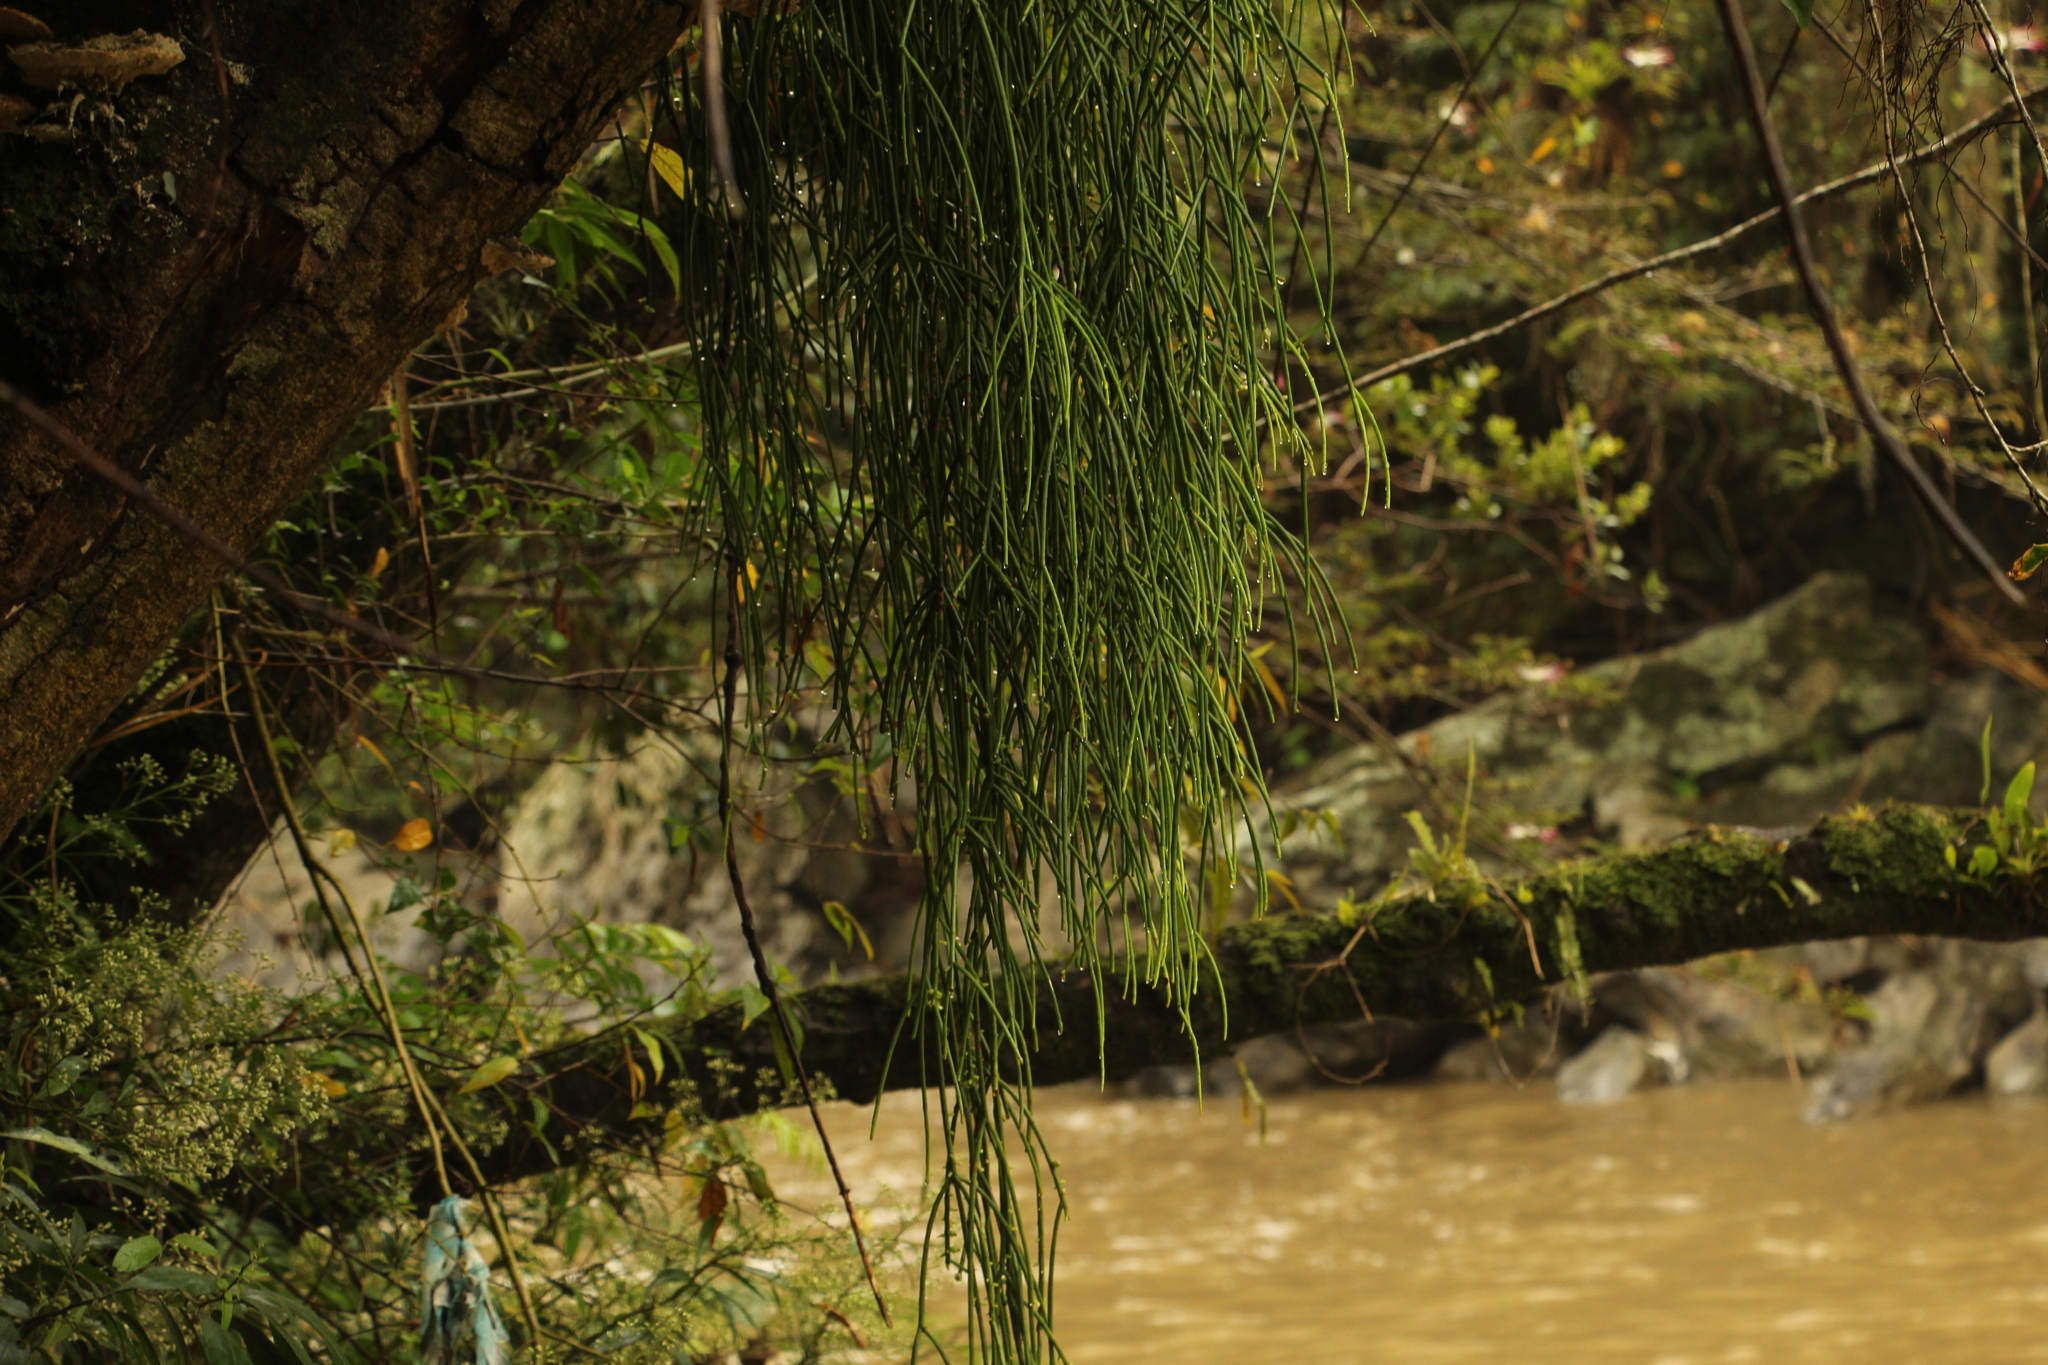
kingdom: Plantae
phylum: Tracheophyta
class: Magnoliopsida
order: Caryophyllales
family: Cactaceae
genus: Rhipsalis
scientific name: Rhipsalis baccifera
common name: Mistletoe cactus
